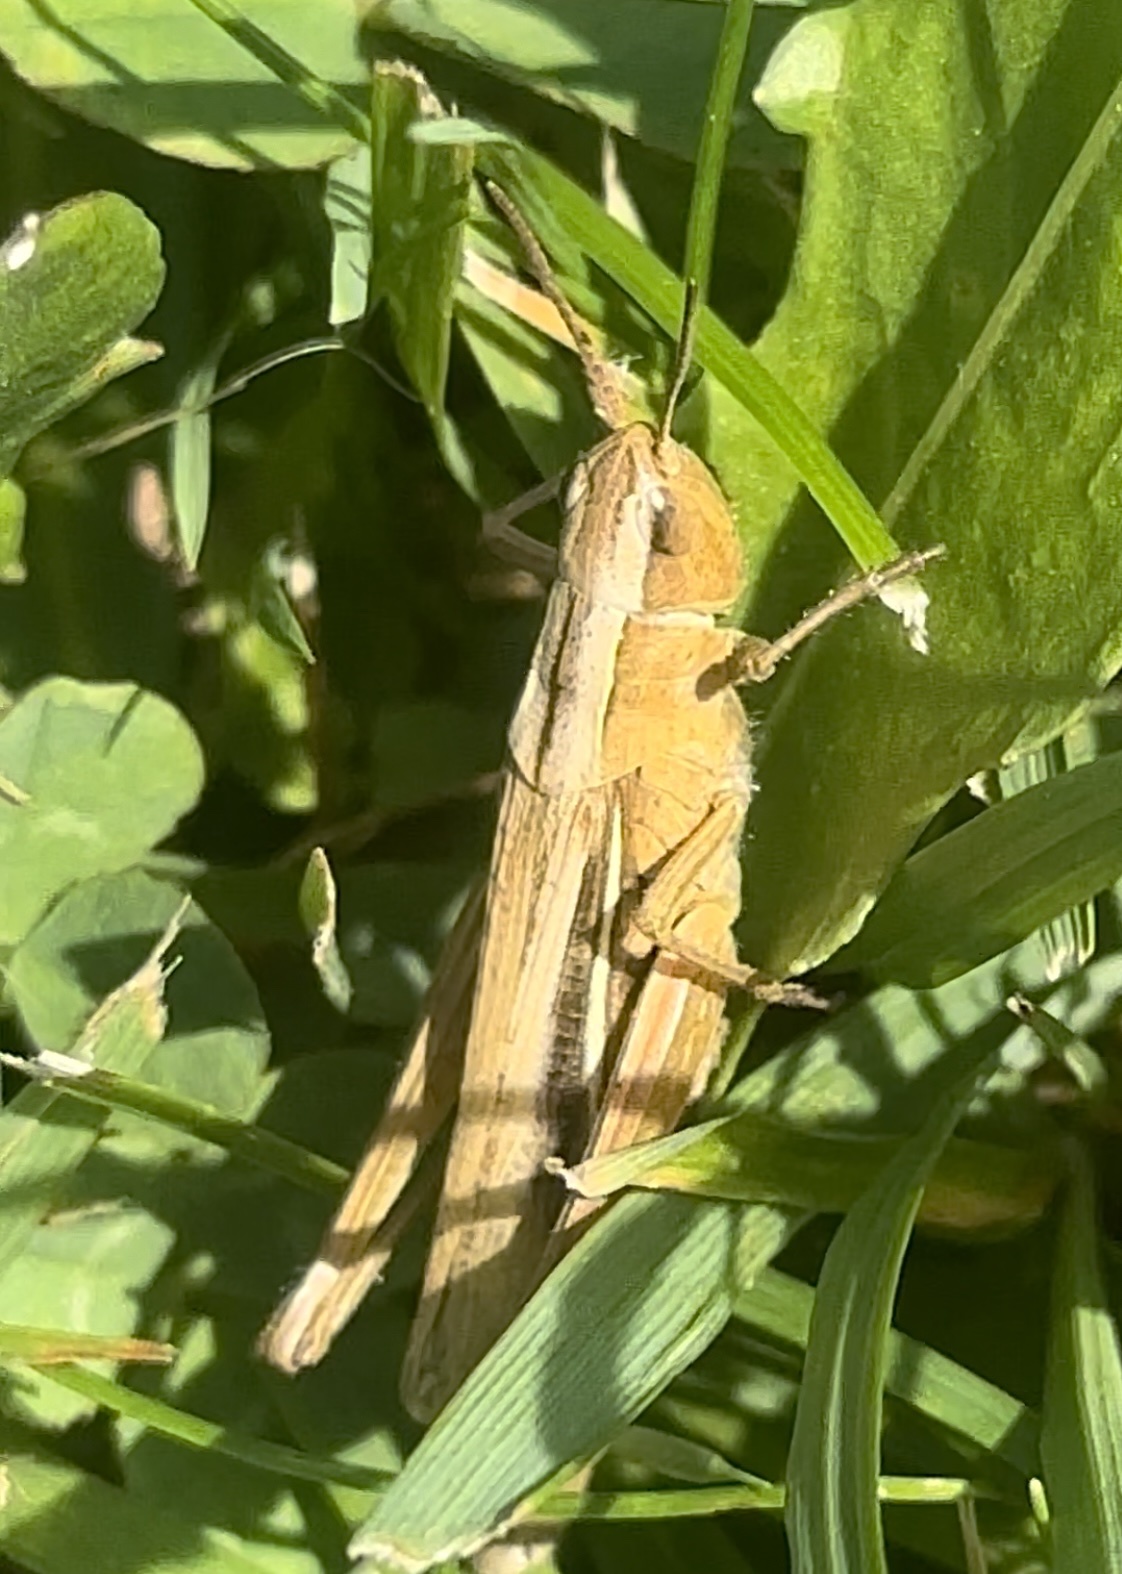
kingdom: Animalia
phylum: Arthropoda
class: Insecta
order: Orthoptera
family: Acrididae
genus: Chorthippus
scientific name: Chorthippus albomarginatus
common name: Lesser marsh grasshopper
